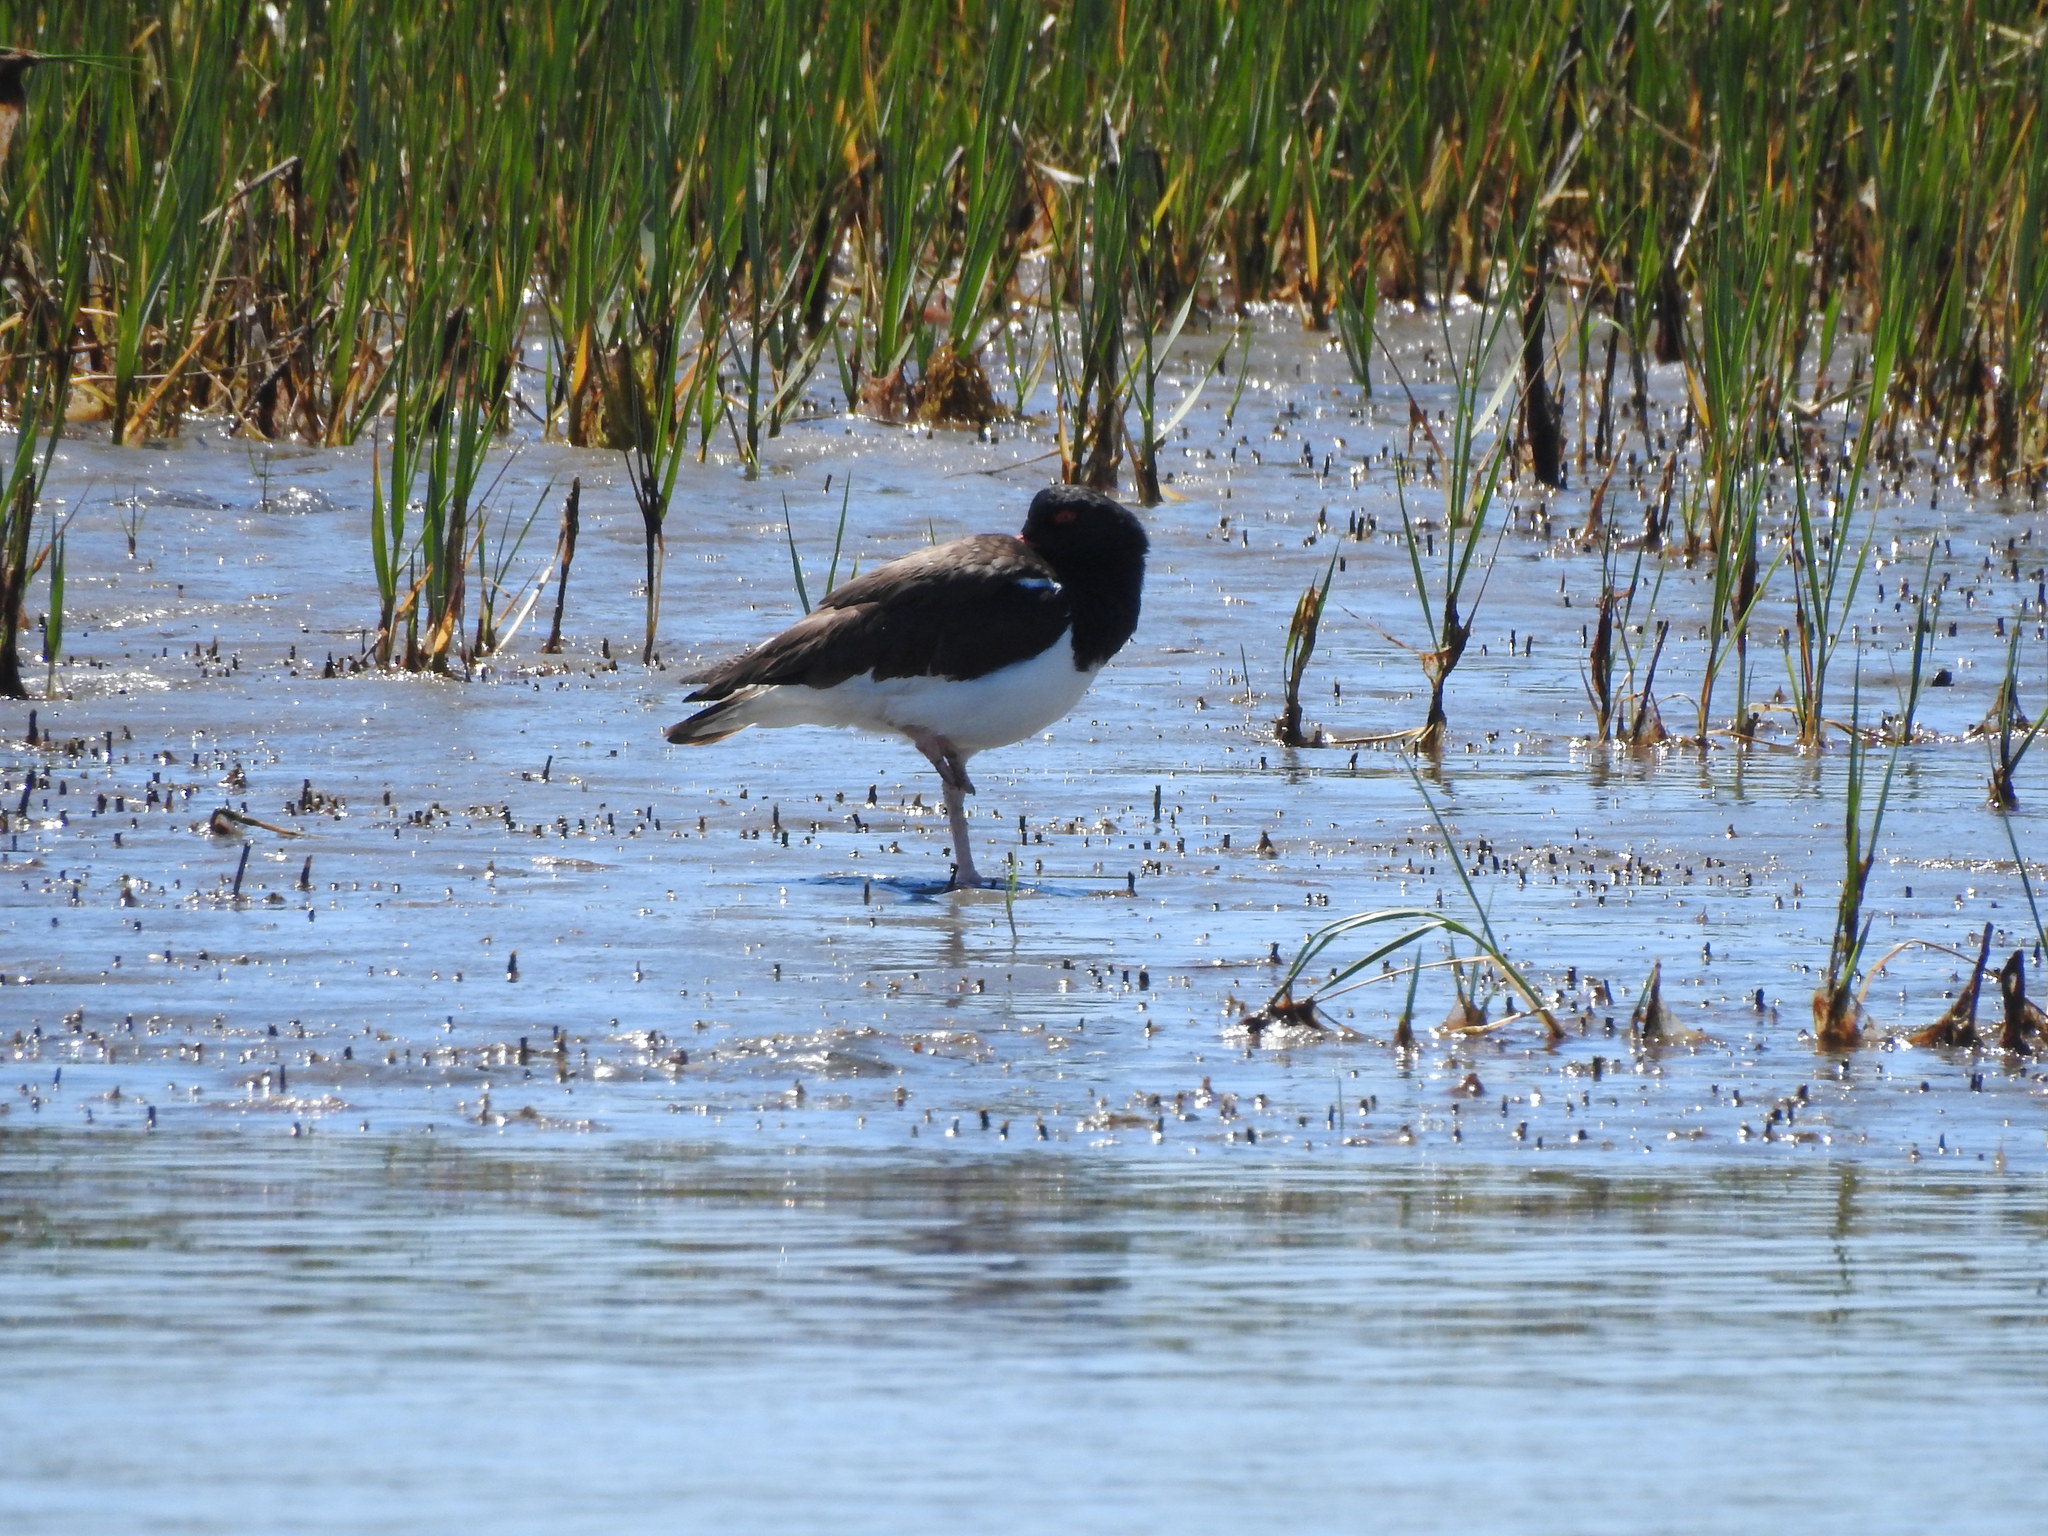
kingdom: Animalia
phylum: Chordata
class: Aves
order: Charadriiformes
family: Haematopodidae
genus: Haematopus
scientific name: Haematopus palliatus
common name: American oystercatcher
